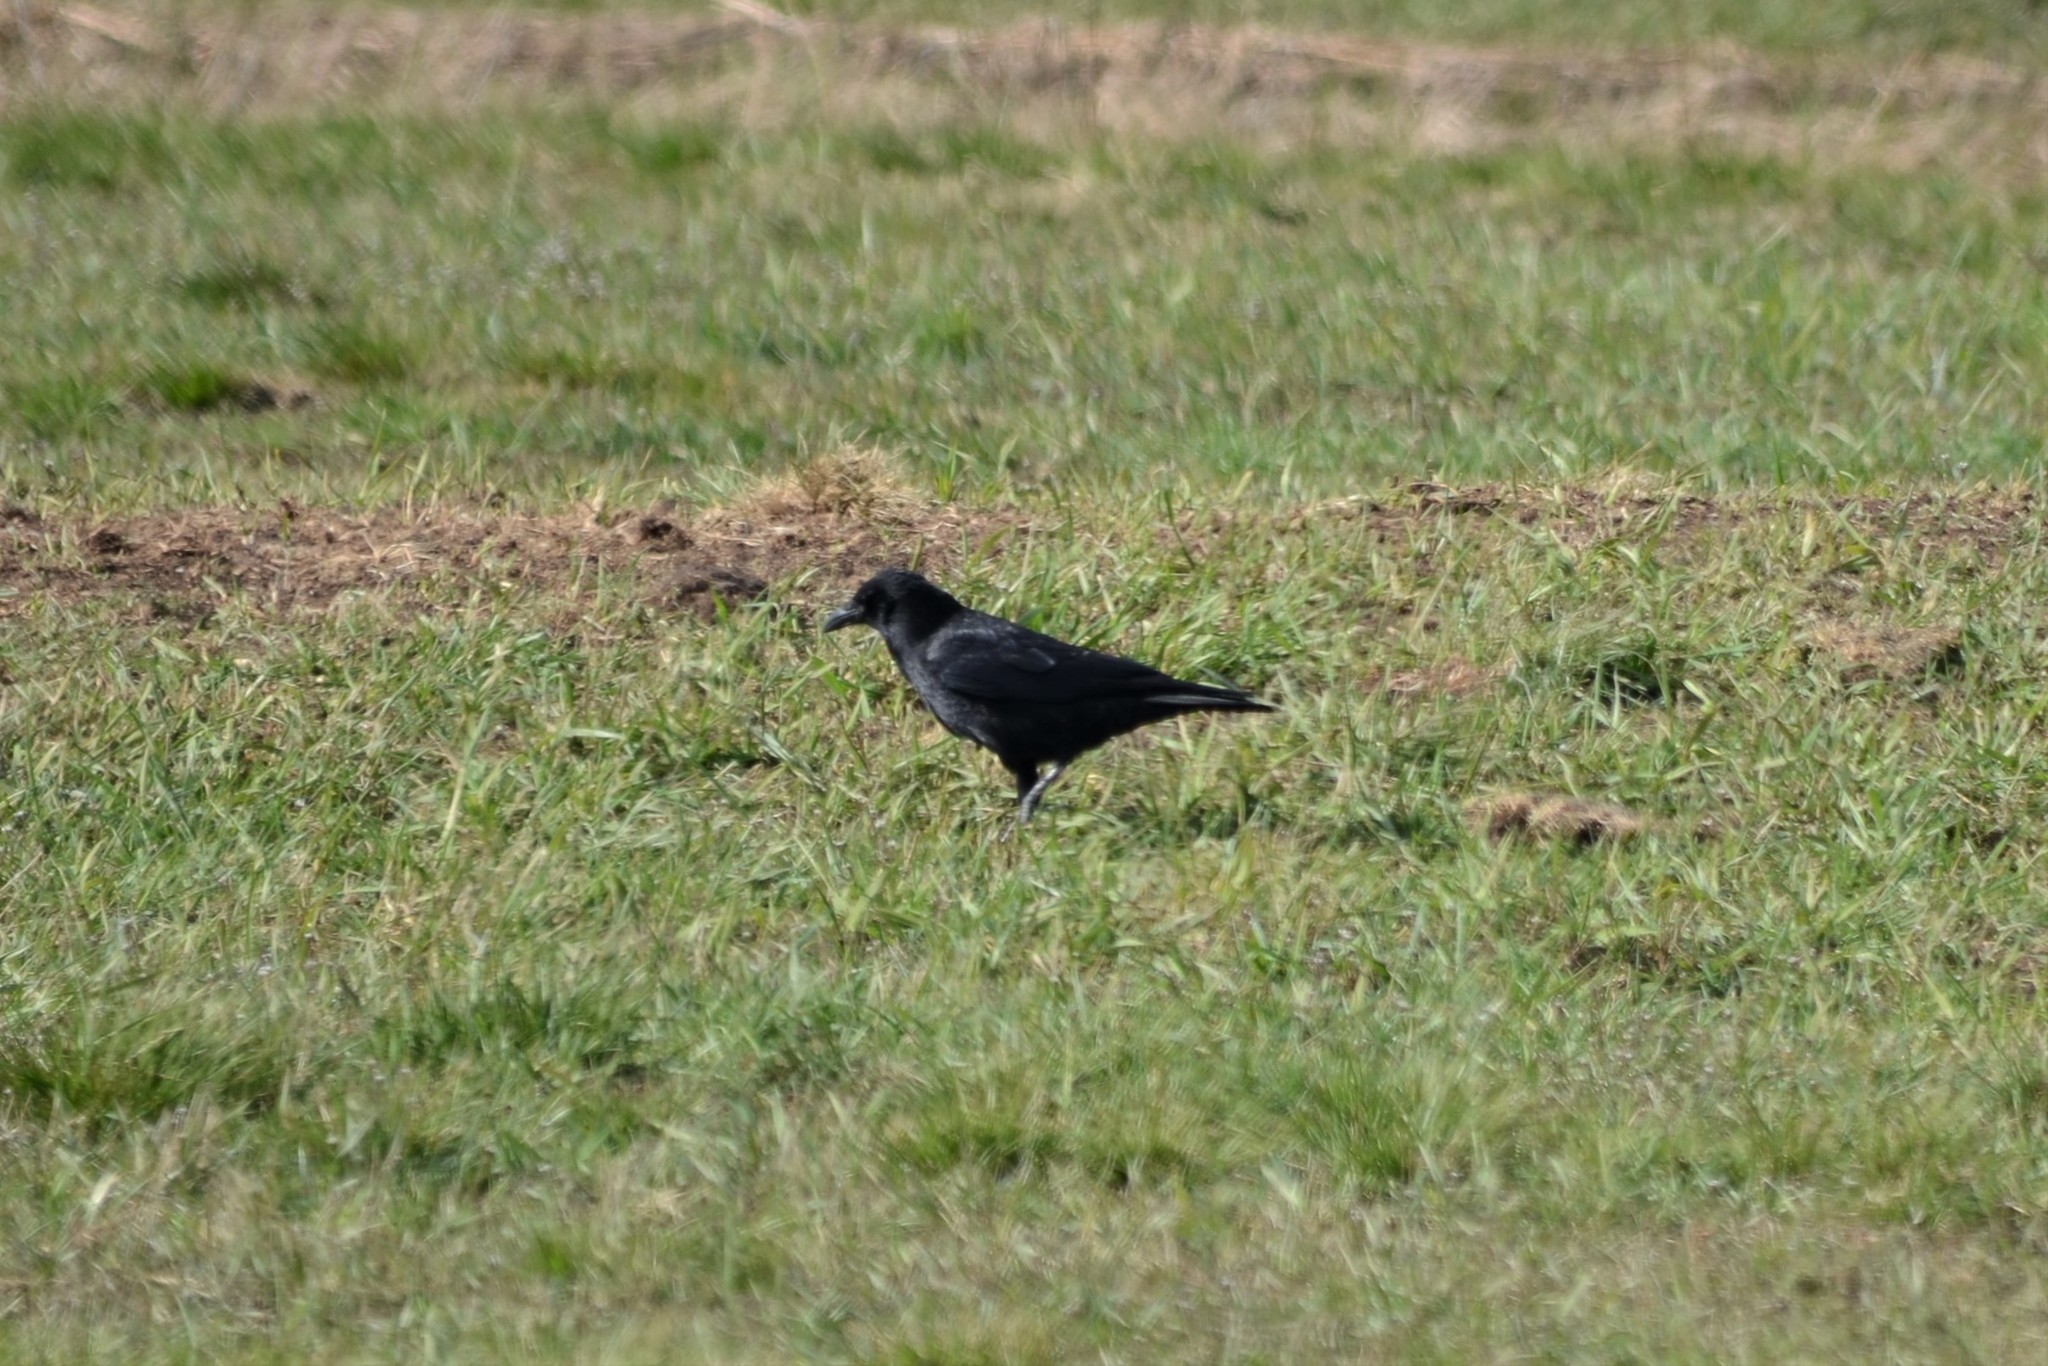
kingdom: Animalia
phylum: Chordata
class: Aves
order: Passeriformes
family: Corvidae
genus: Corvus
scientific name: Corvus corone
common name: Carrion crow
